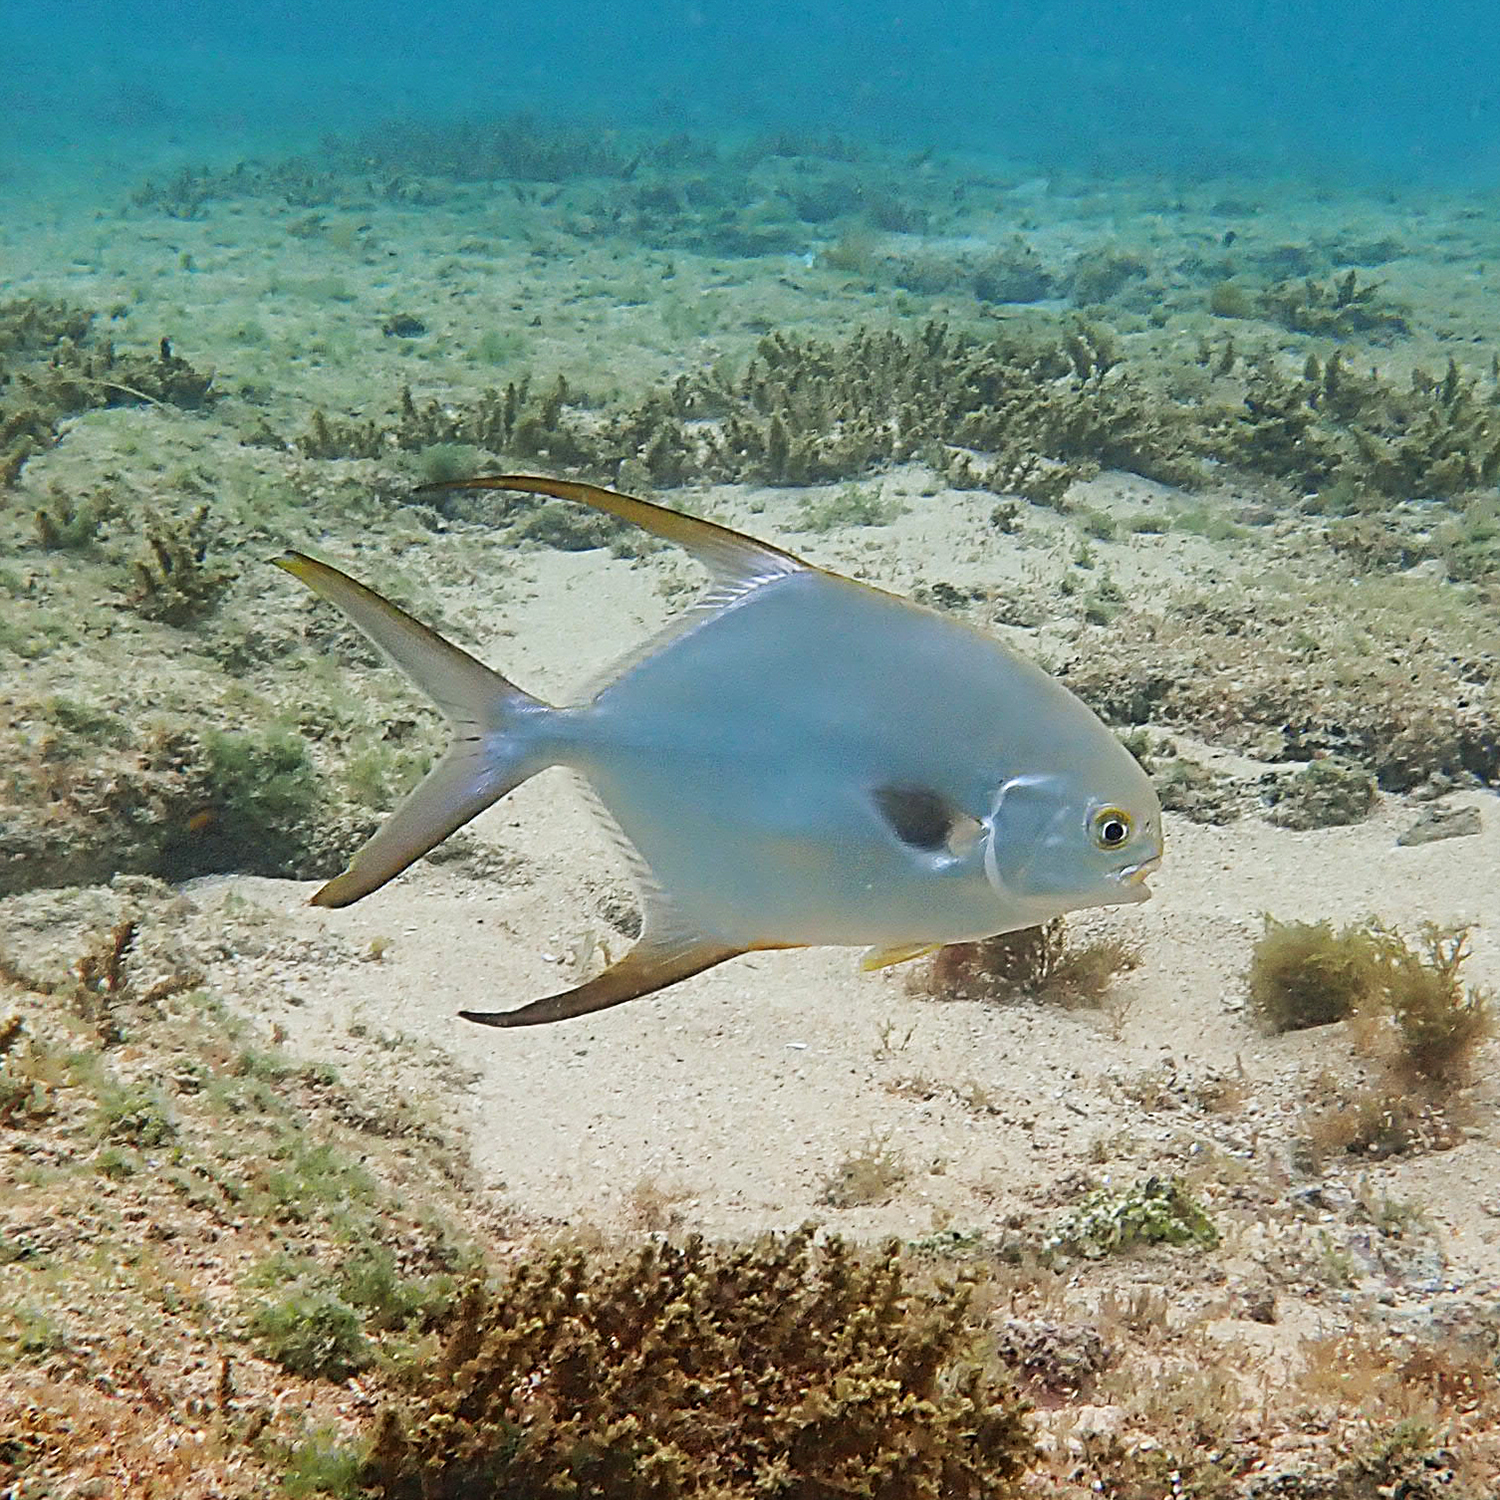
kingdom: Animalia
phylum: Chordata
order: Perciformes
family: Carangidae
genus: Trachinotus
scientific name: Trachinotus blochii
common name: Snubnose pompano
